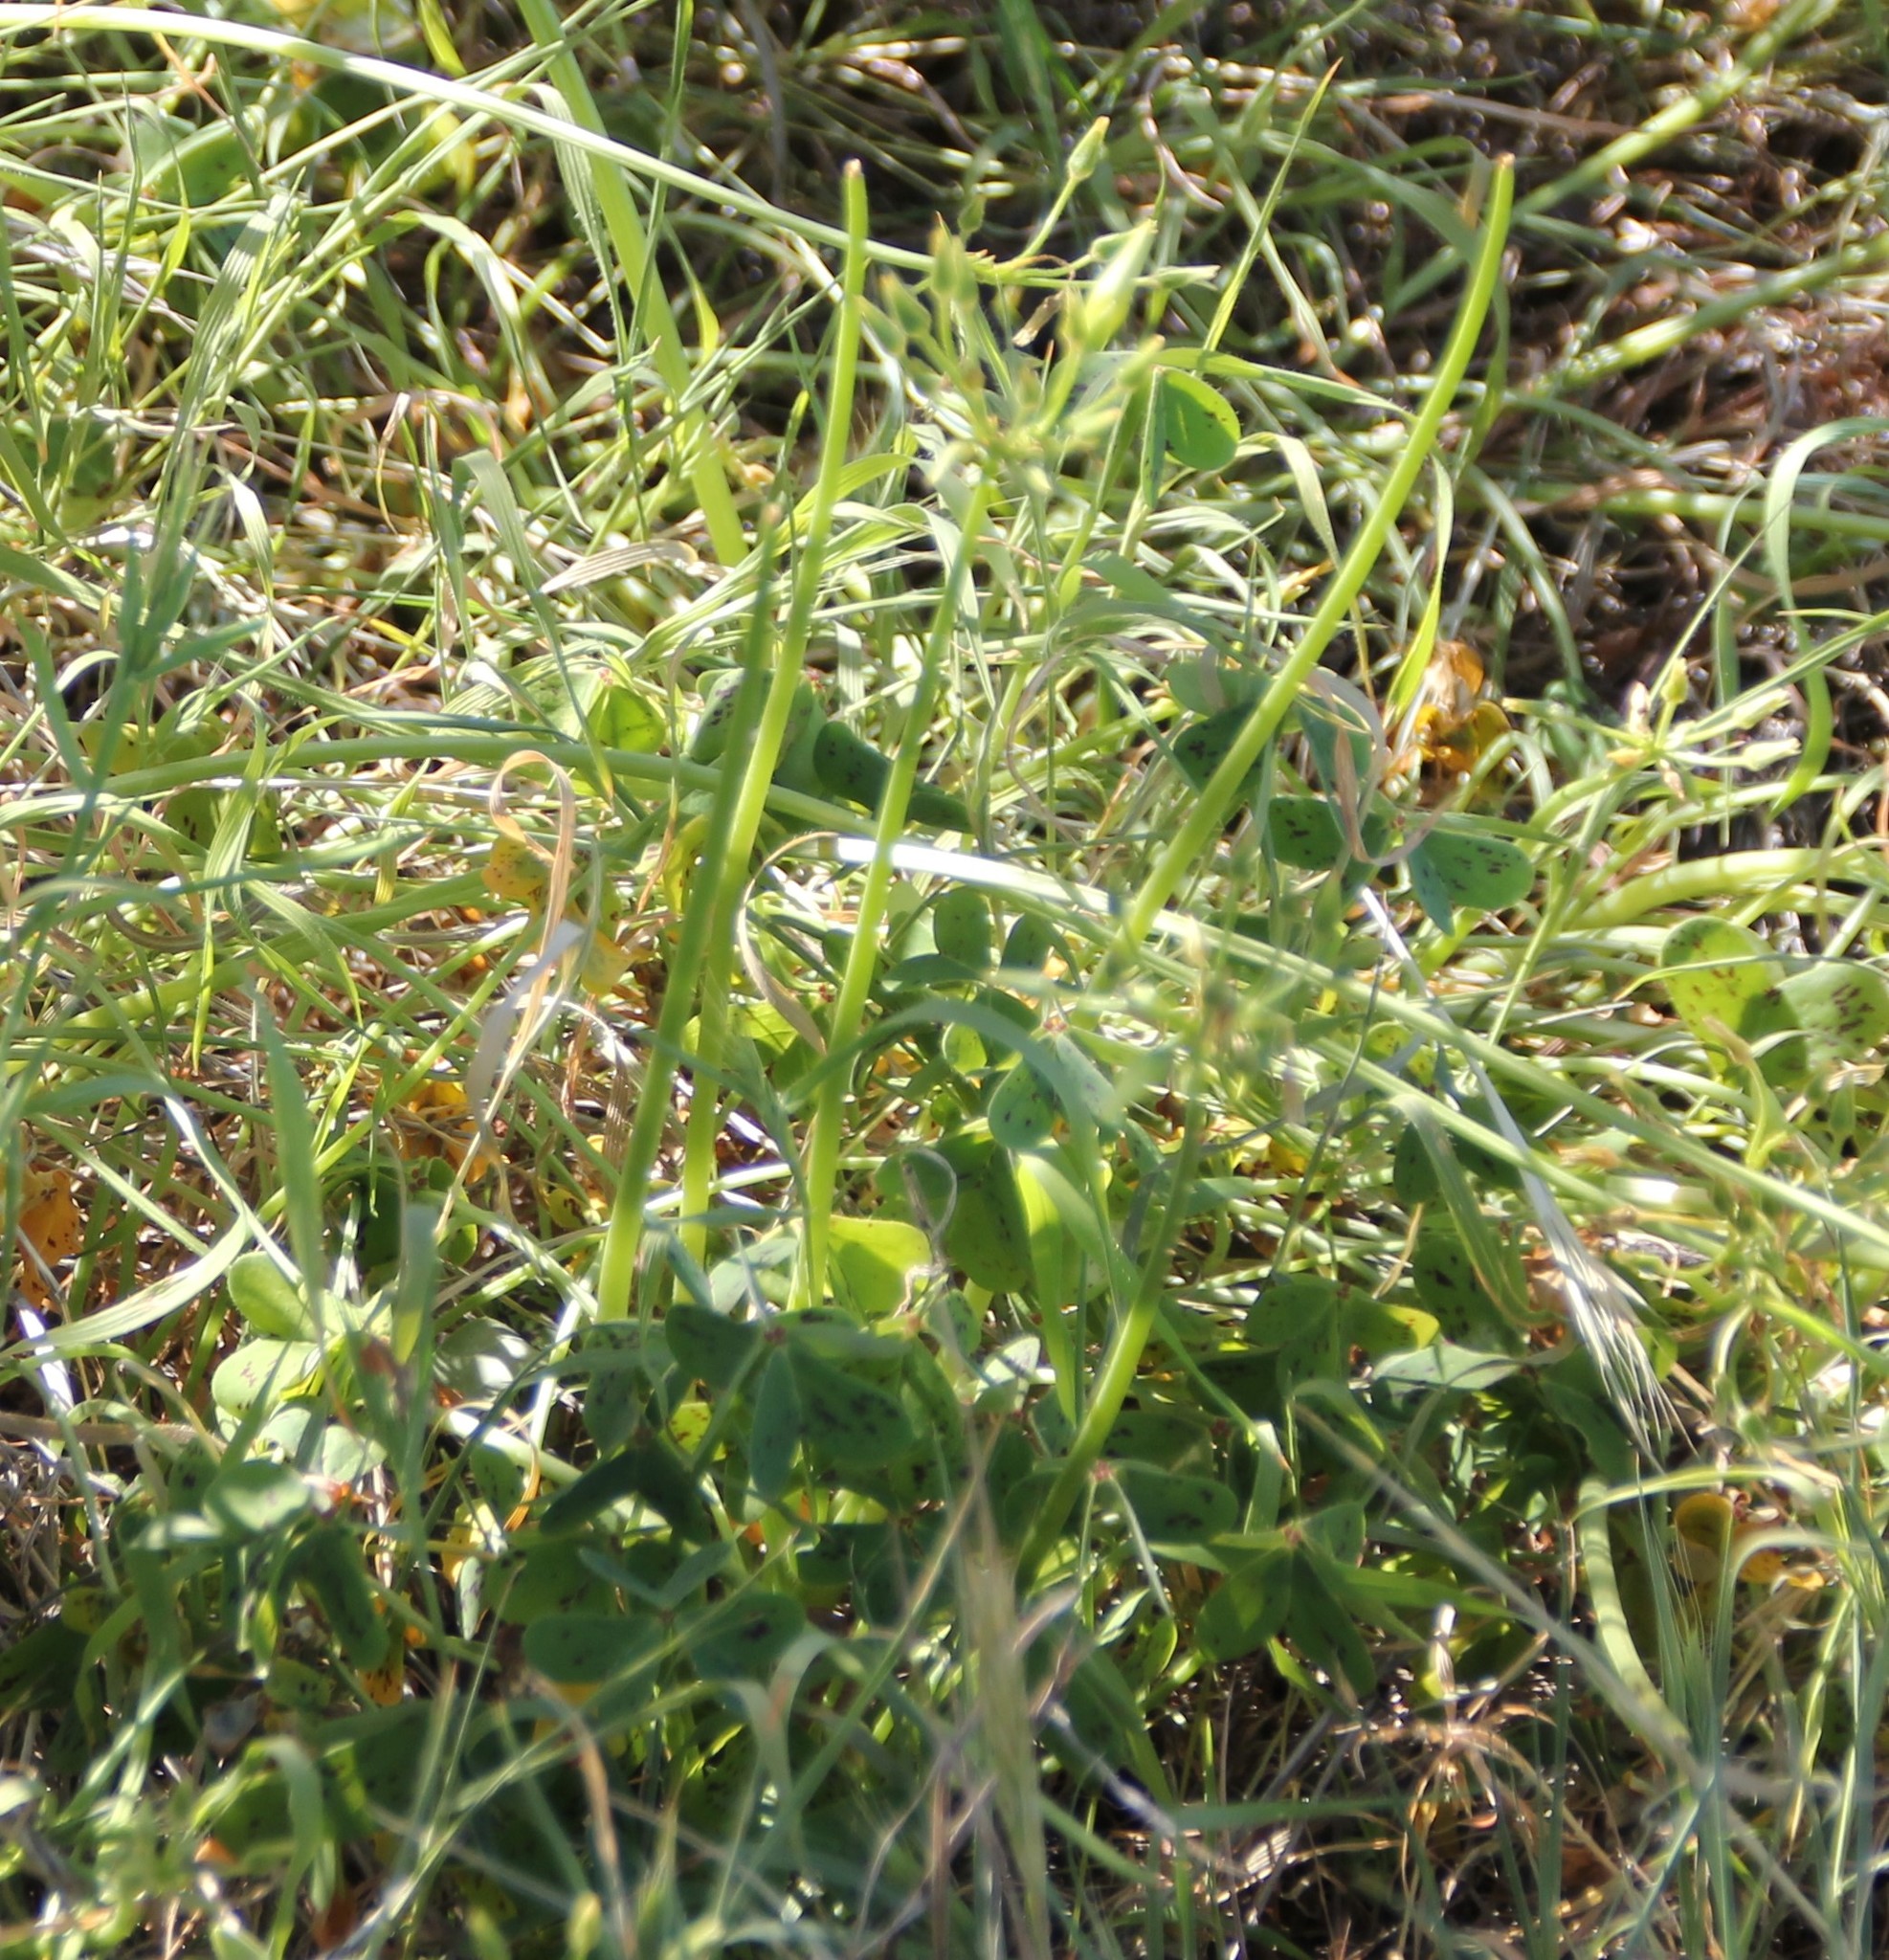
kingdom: Plantae
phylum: Tracheophyta
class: Magnoliopsida
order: Oxalidales
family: Oxalidaceae
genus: Oxalis
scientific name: Oxalis pes-caprae
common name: Bermuda-buttercup
